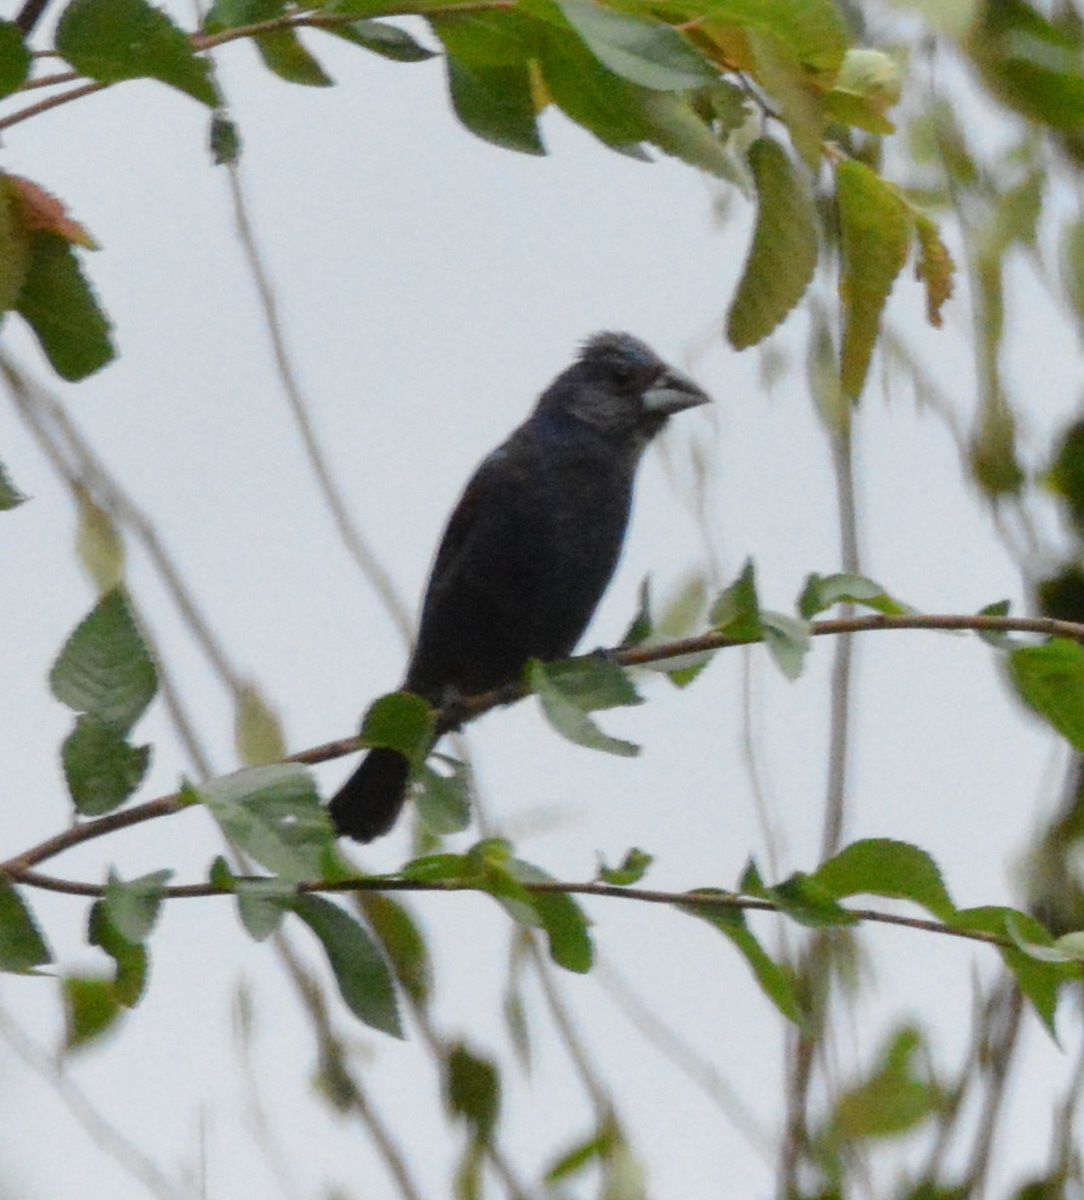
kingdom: Animalia
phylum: Chordata
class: Aves
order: Passeriformes
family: Cardinalidae
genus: Passerina
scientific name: Passerina caerulea
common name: Blue grosbeak
